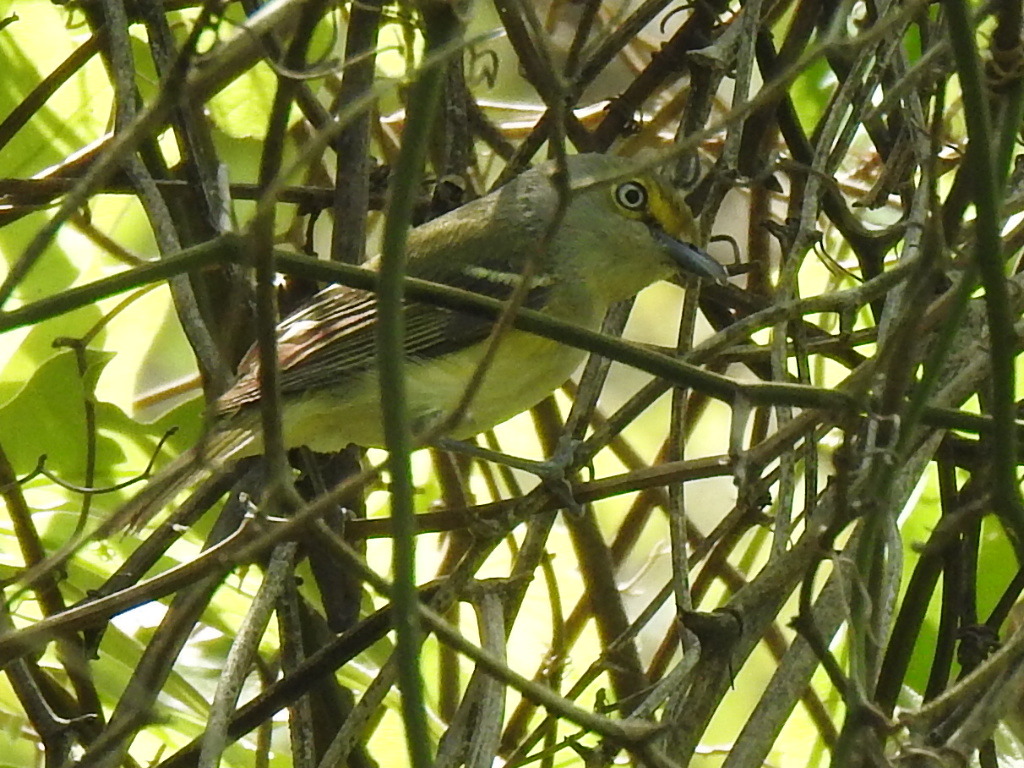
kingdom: Animalia
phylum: Chordata
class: Aves
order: Passeriformes
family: Vireonidae
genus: Vireo
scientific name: Vireo griseus
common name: White-eyed vireo
